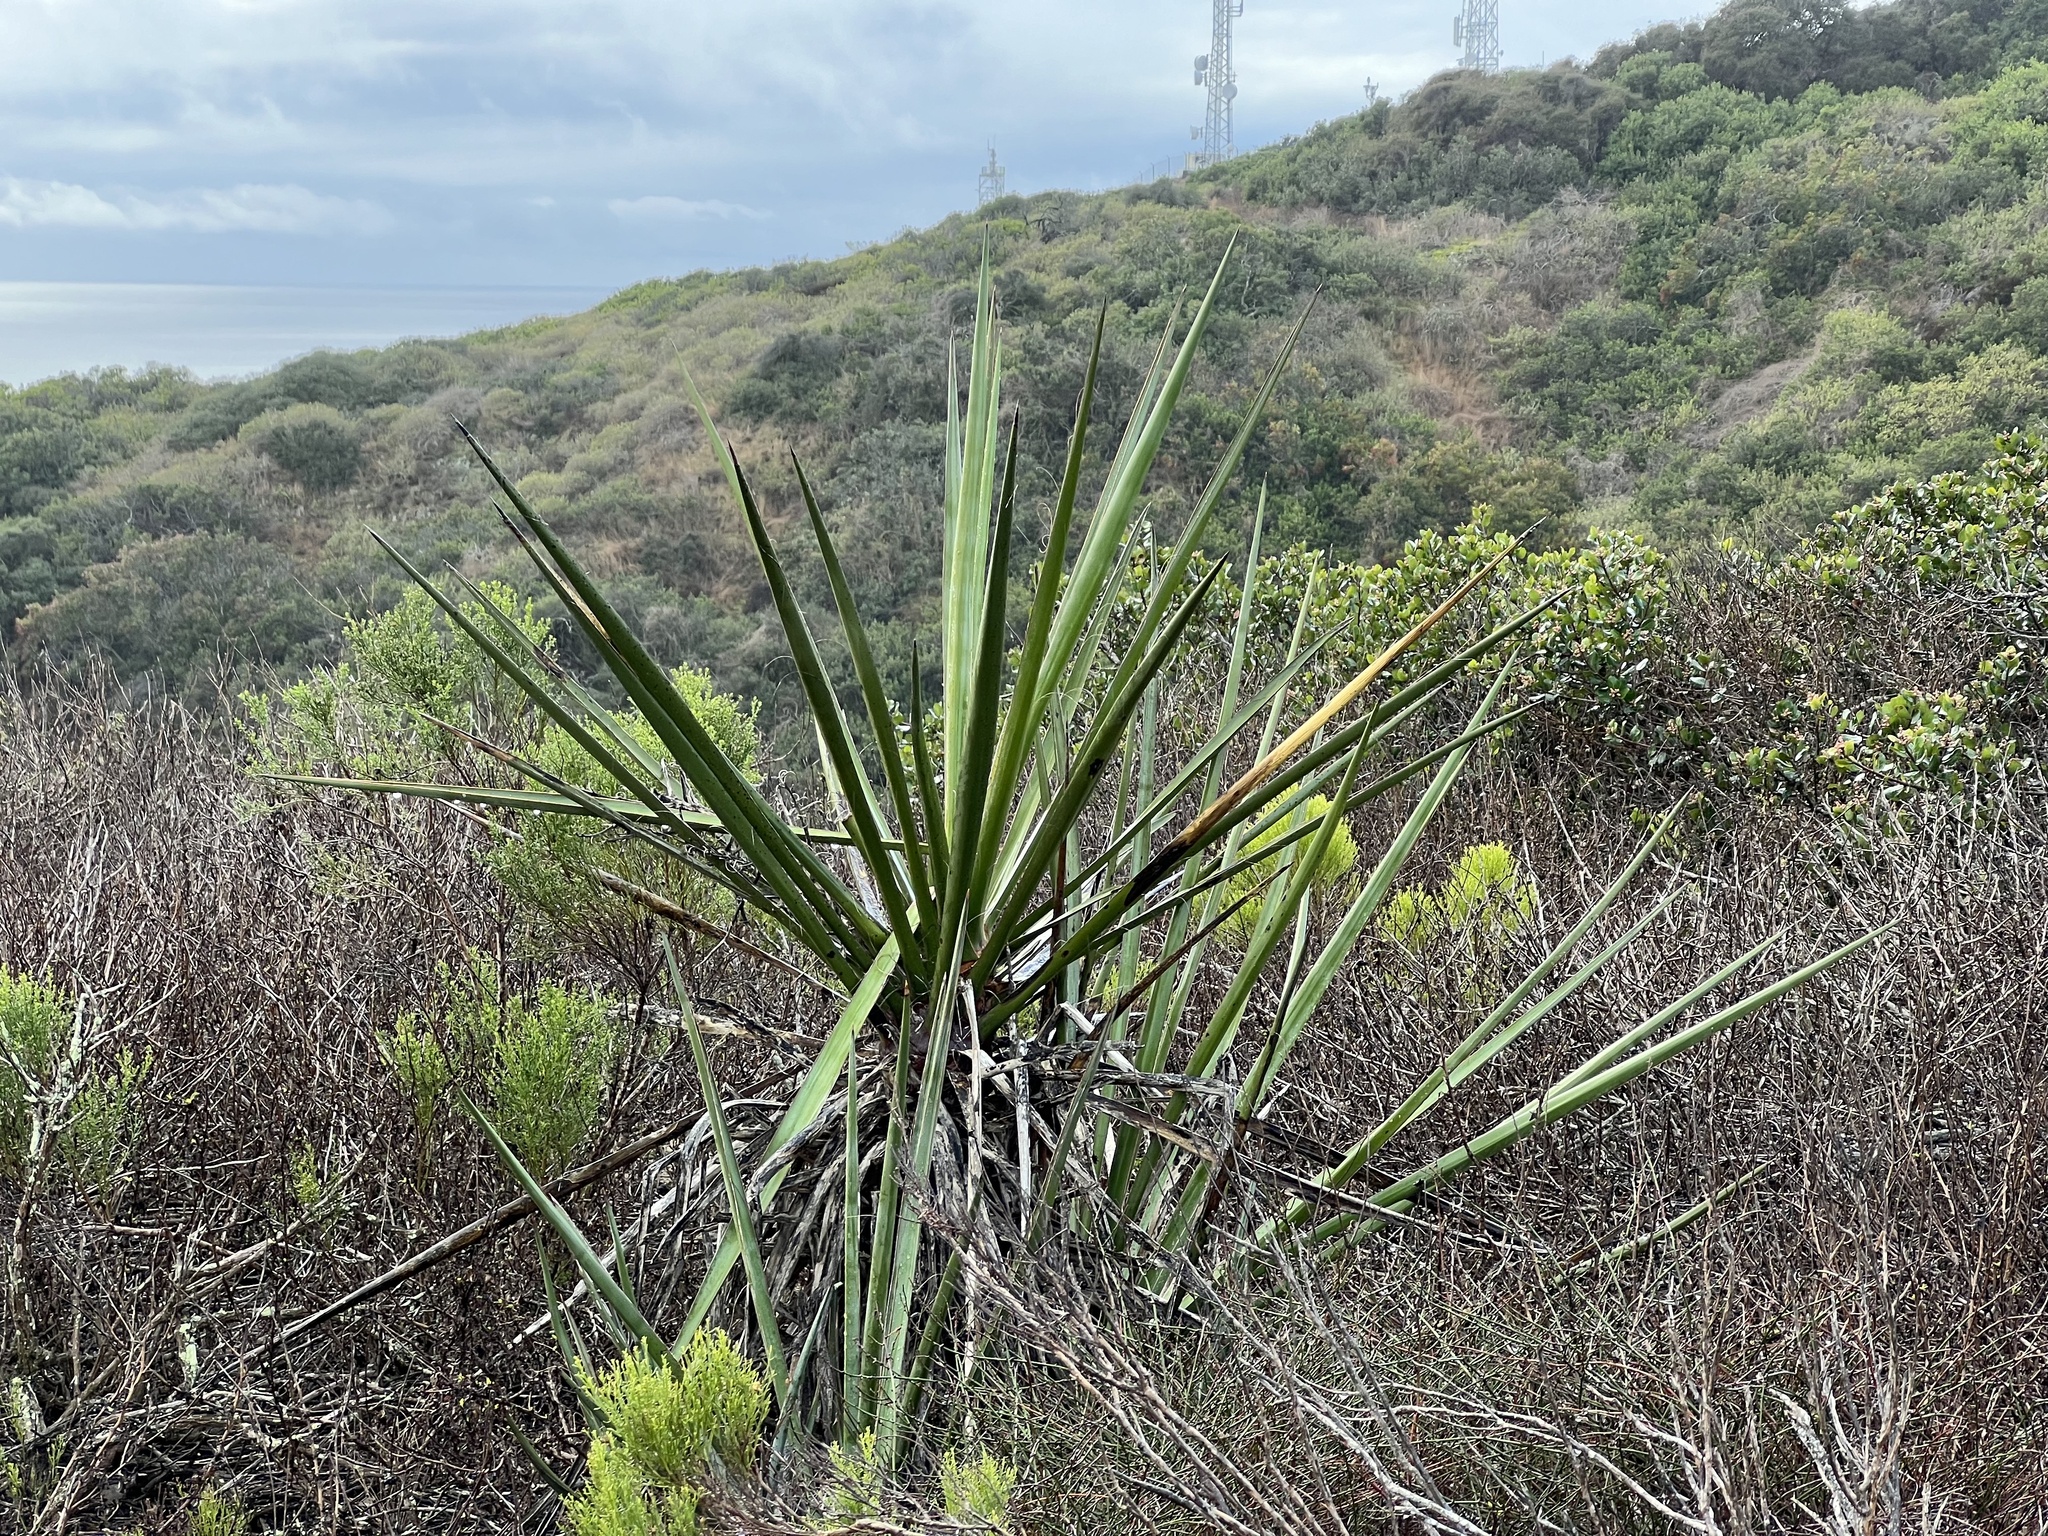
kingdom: Plantae
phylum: Tracheophyta
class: Liliopsida
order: Asparagales
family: Asparagaceae
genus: Yucca
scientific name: Yucca schidigera
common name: Mojave yucca
